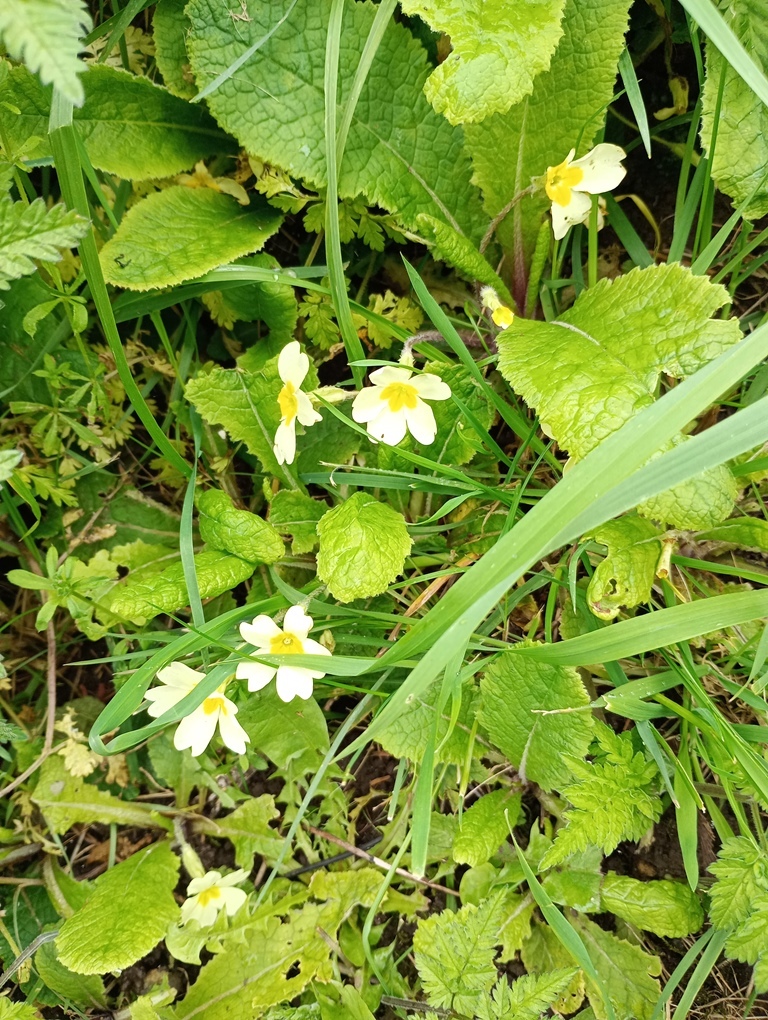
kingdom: Plantae
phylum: Tracheophyta
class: Magnoliopsida
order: Ericales
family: Primulaceae
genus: Primula
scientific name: Primula vulgaris
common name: Primrose
